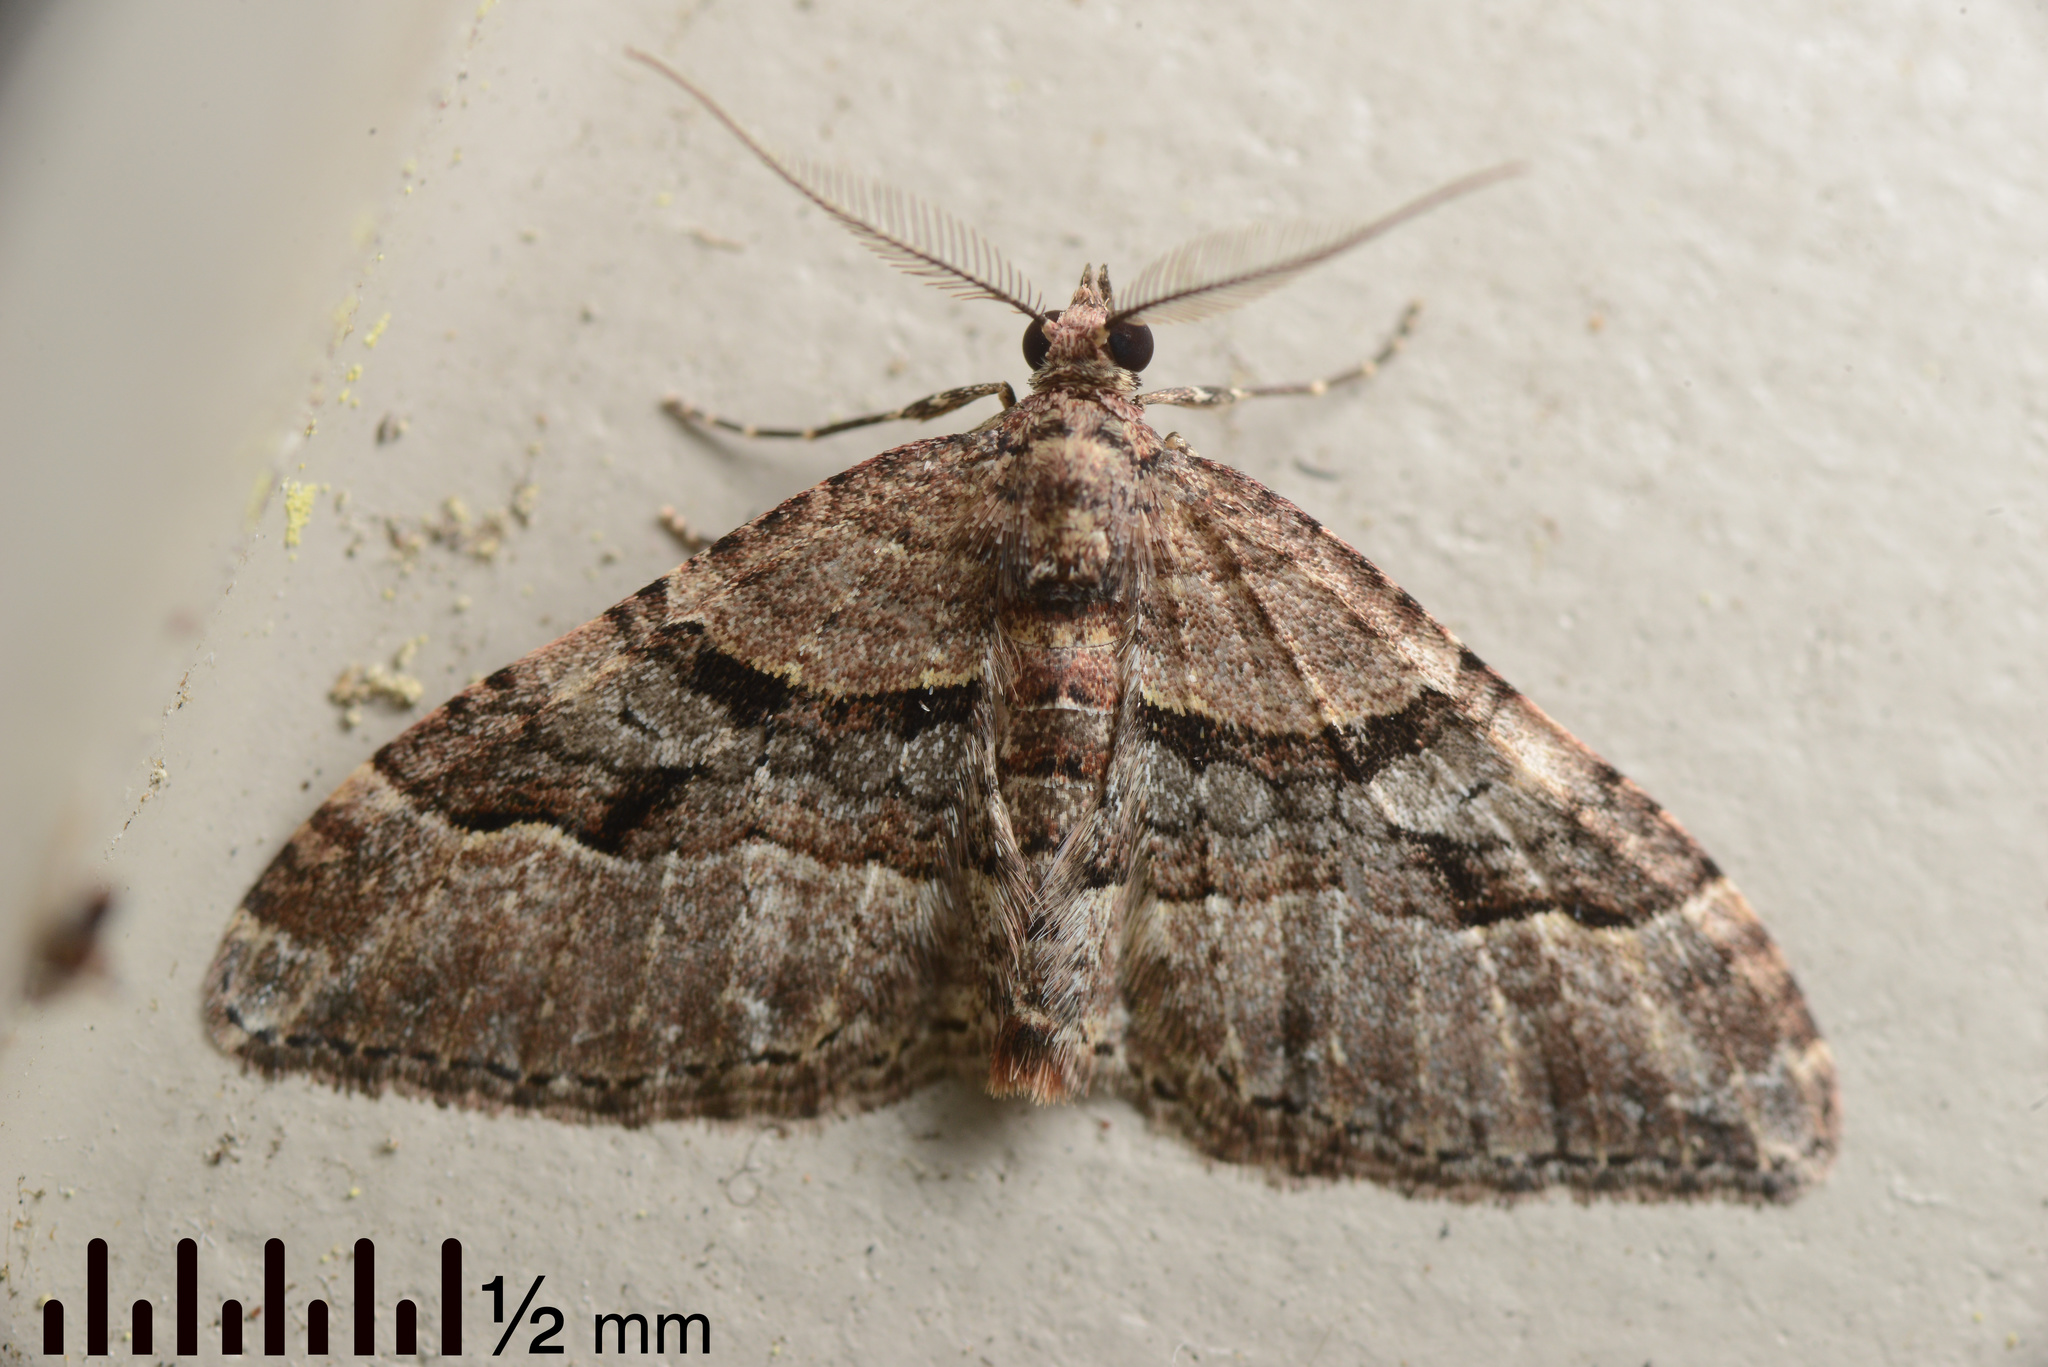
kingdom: Animalia
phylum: Arthropoda
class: Insecta
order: Lepidoptera
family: Geometridae
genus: Epyaxa
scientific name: Epyaxa lucidata
